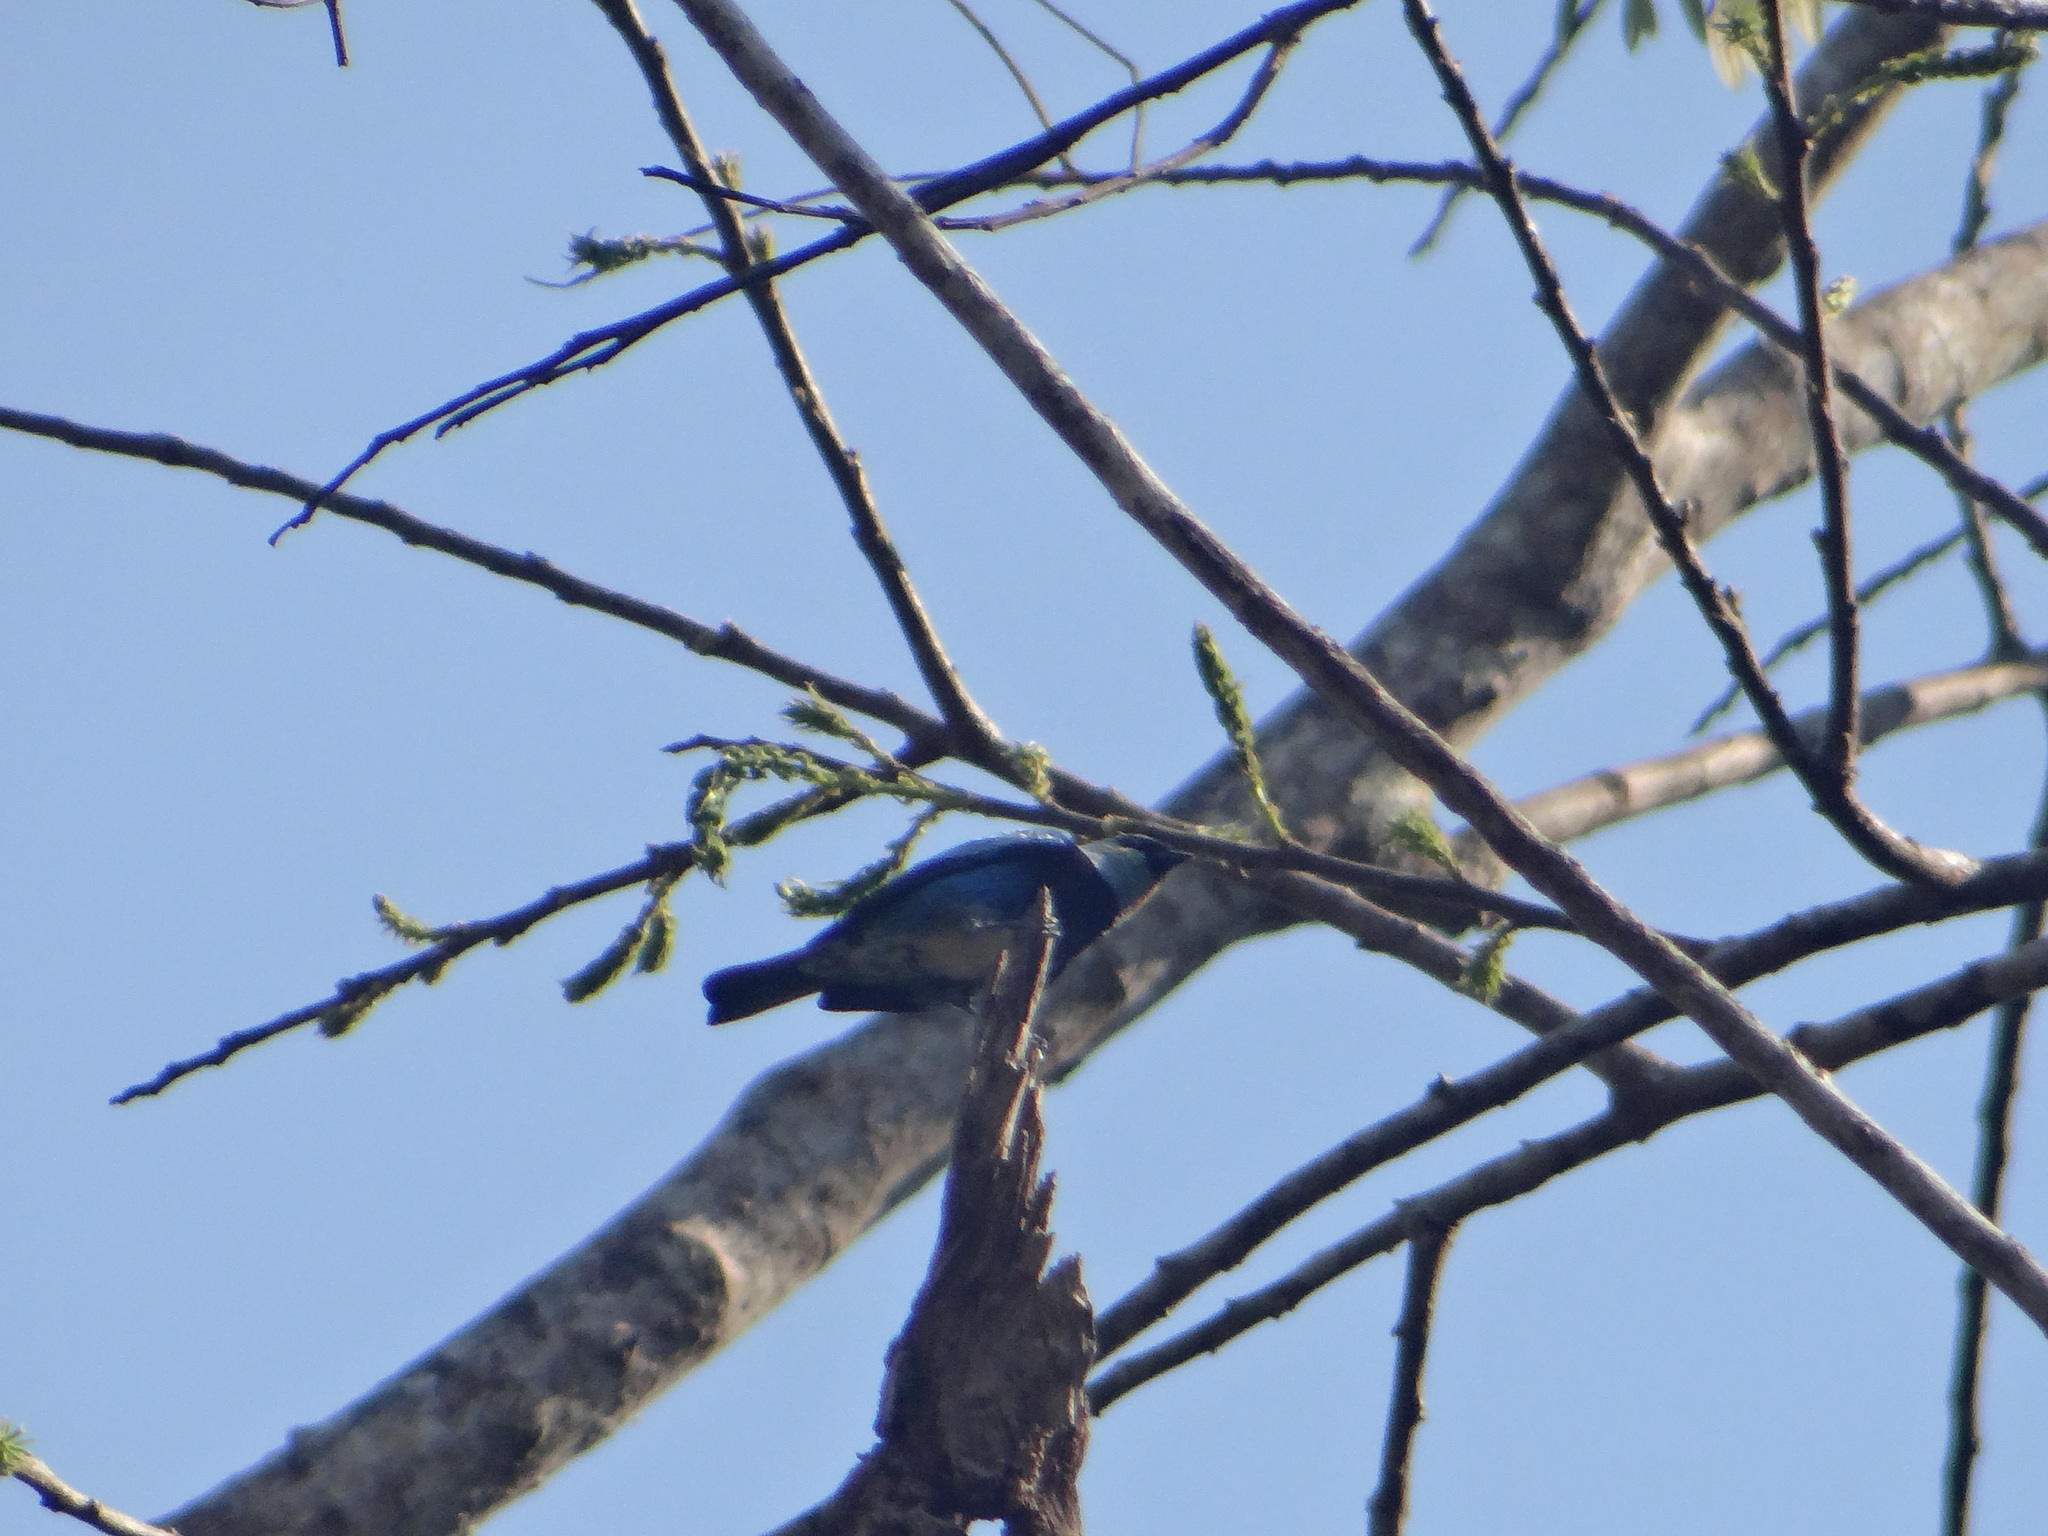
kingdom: Animalia
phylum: Chordata
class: Aves
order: Passeriformes
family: Thraupidae
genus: Stilpnia
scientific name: Stilpnia nigrocincta
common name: Masked tanager
